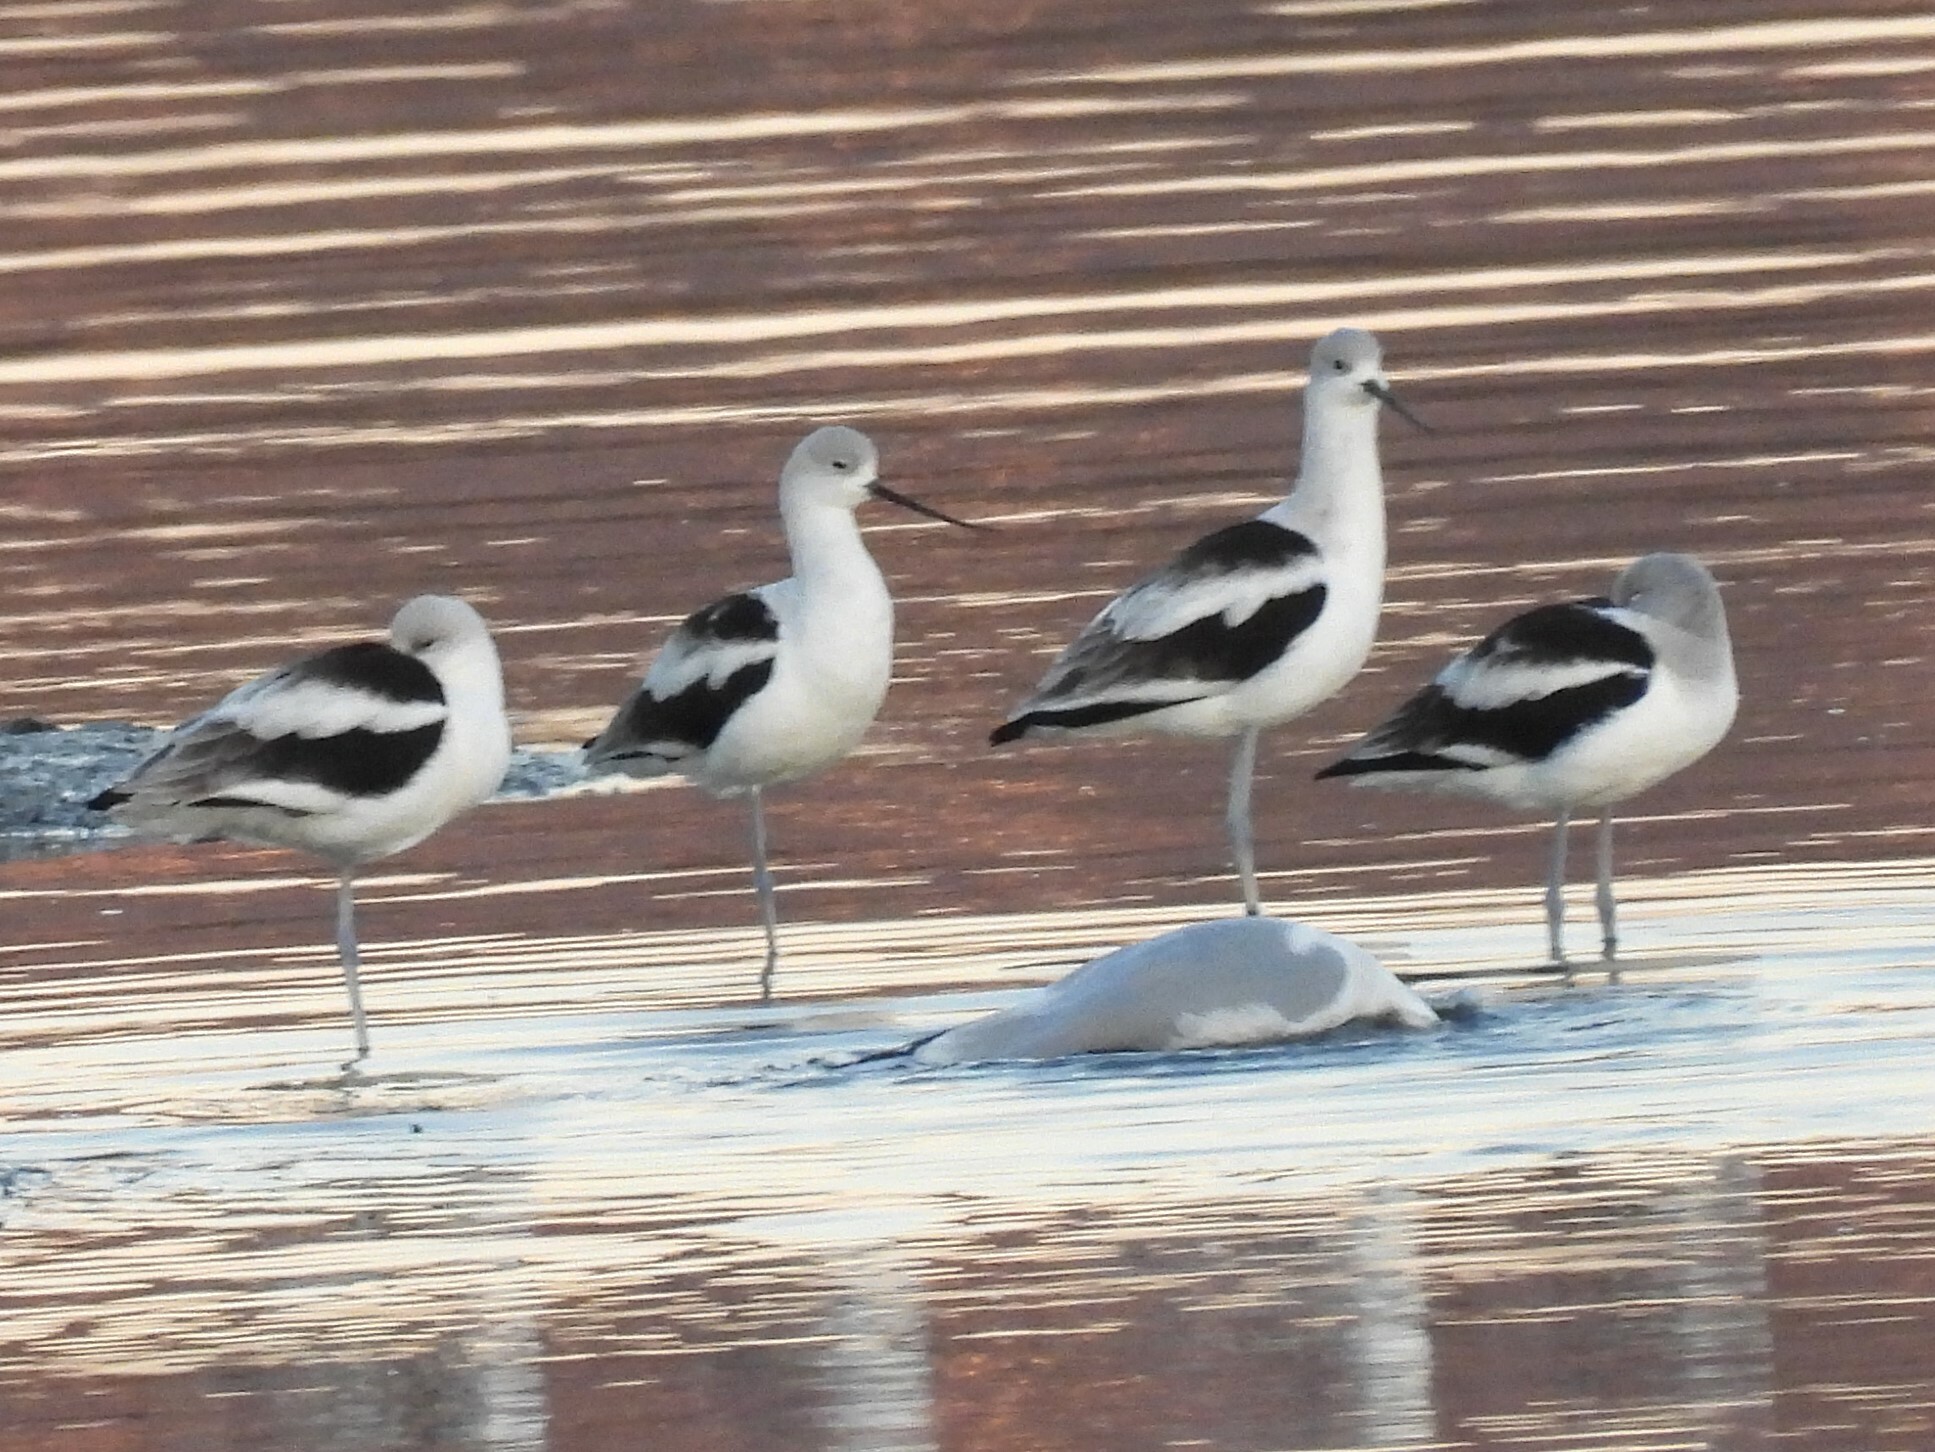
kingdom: Animalia
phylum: Chordata
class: Aves
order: Charadriiformes
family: Recurvirostridae
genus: Recurvirostra
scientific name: Recurvirostra americana
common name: American avocet
